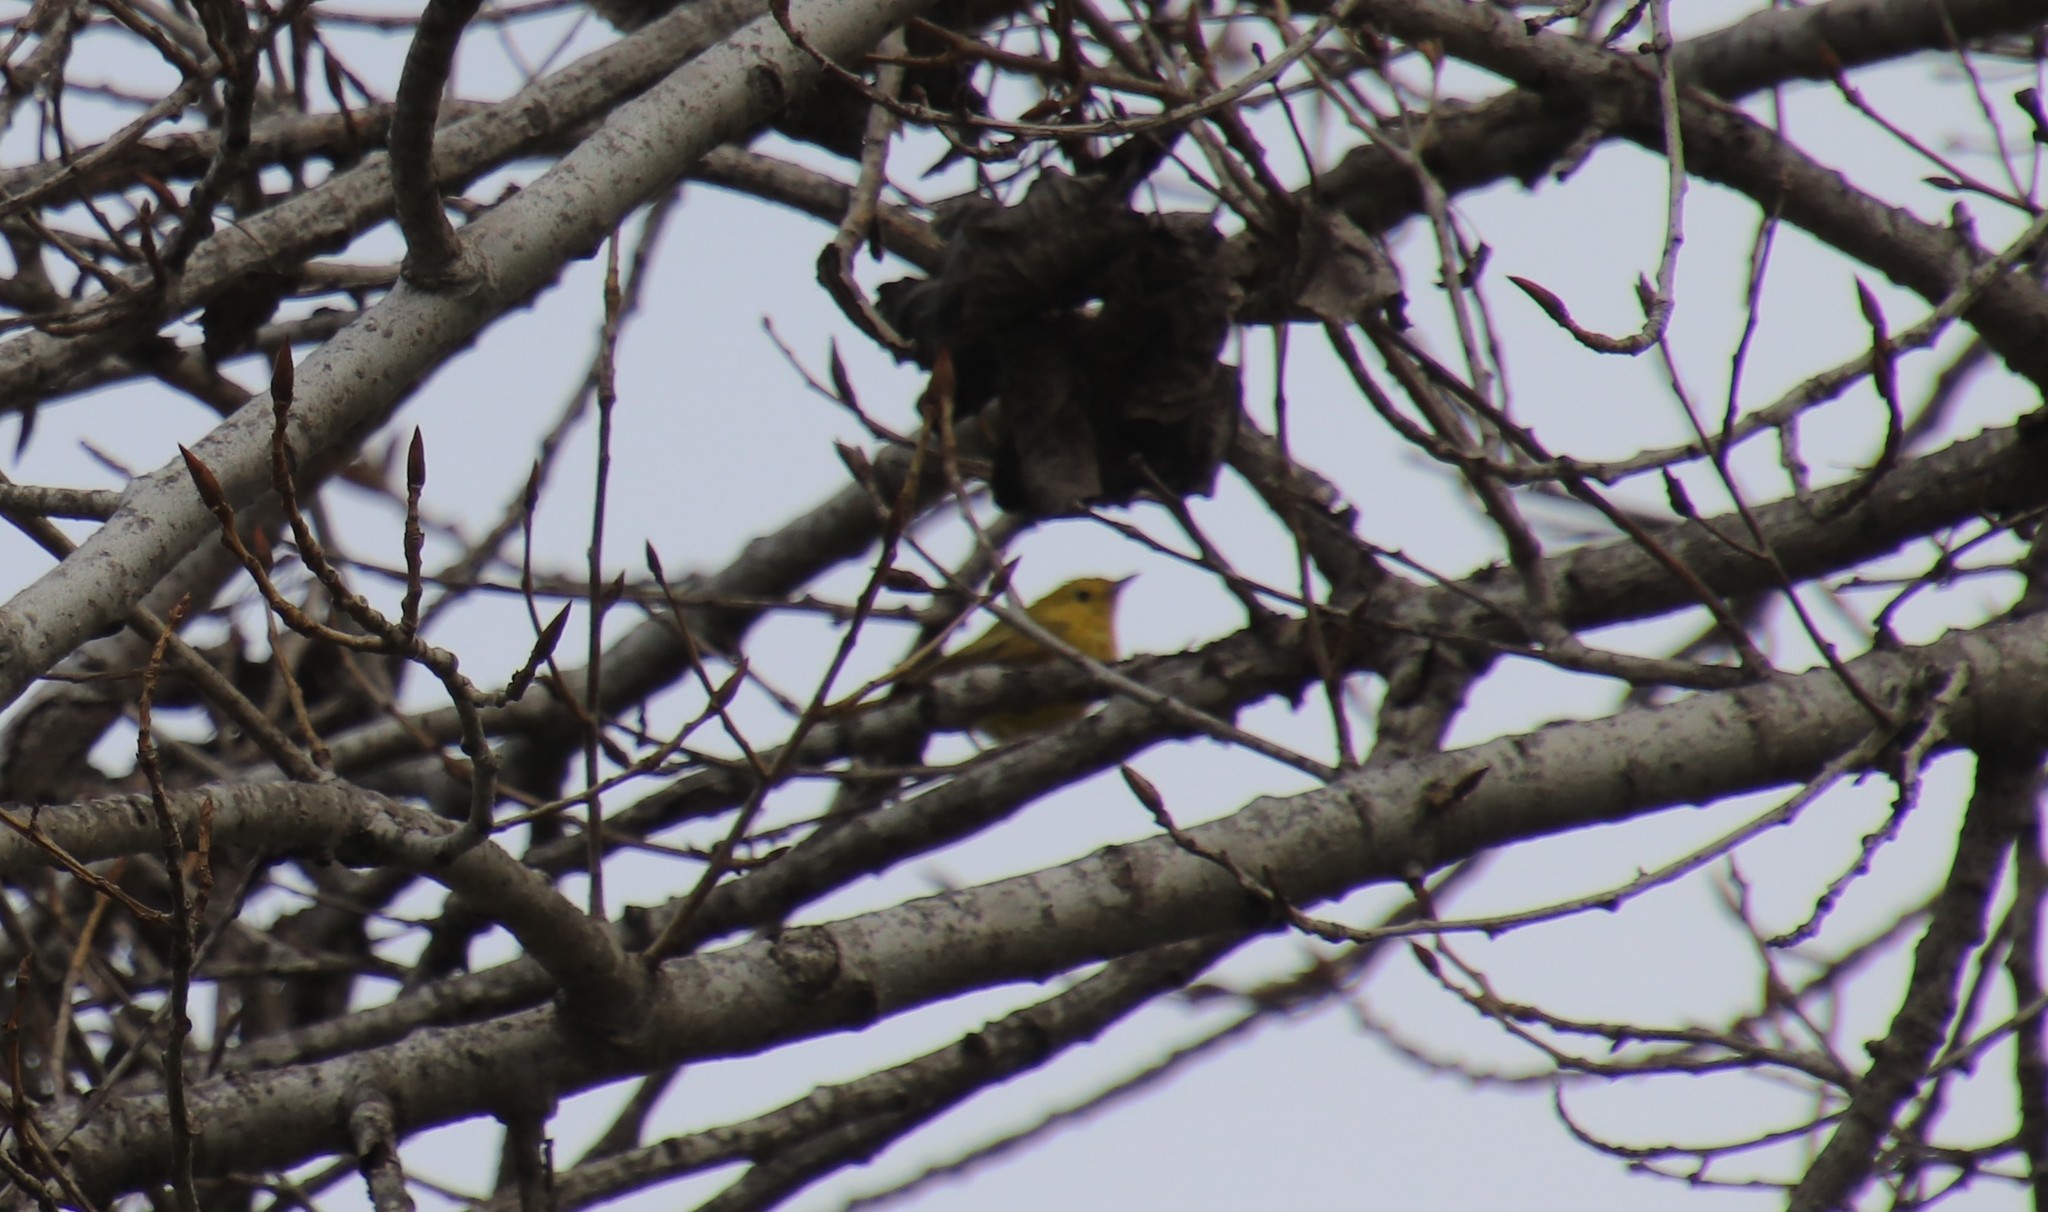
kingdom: Animalia
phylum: Chordata
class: Aves
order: Passeriformes
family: Parulidae
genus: Setophaga
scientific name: Setophaga petechia
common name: Yellow warbler
